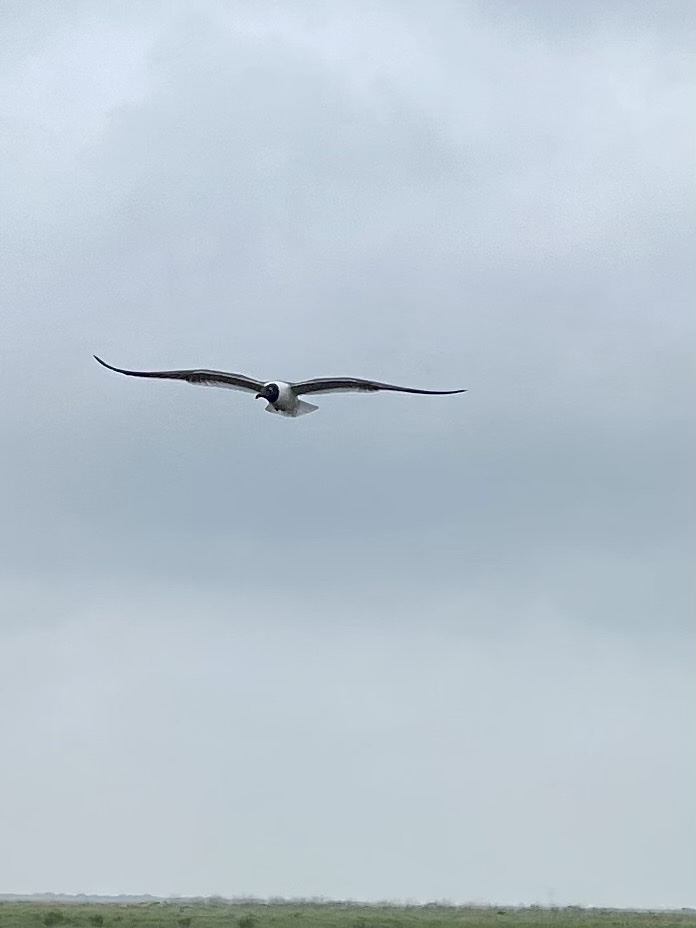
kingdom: Animalia
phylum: Chordata
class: Aves
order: Charadriiformes
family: Laridae
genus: Leucophaeus
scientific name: Leucophaeus atricilla
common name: Laughing gull
